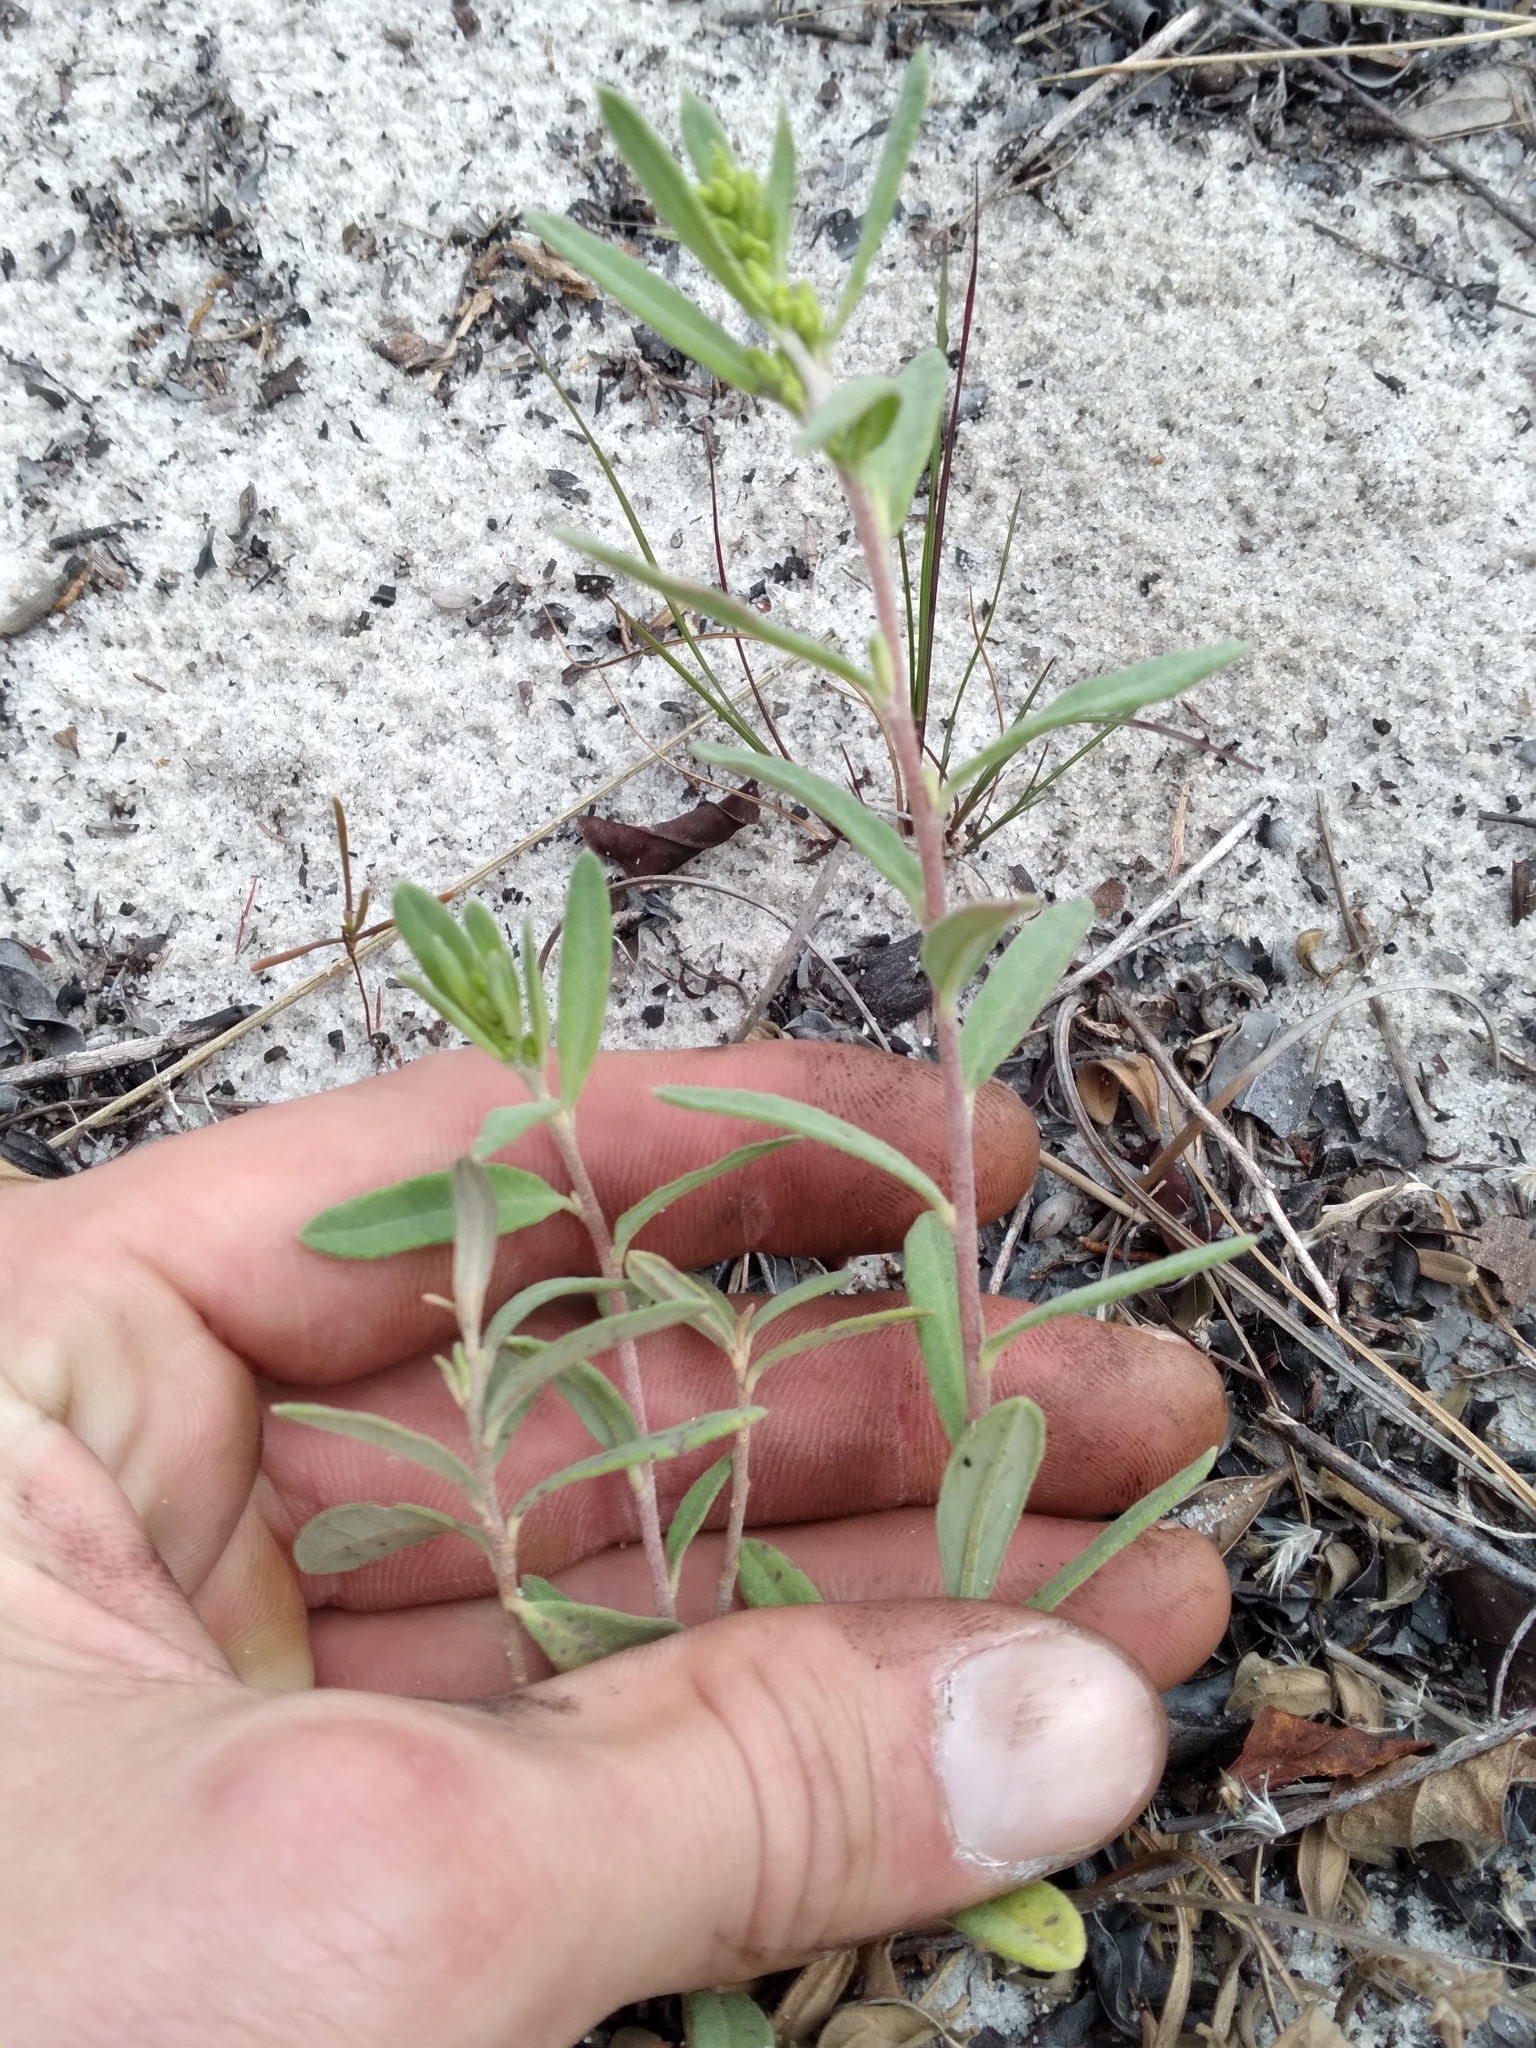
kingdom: Plantae
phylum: Tracheophyta
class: Magnoliopsida
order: Malvales
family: Cistaceae
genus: Crocanthemum
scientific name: Crocanthemum nashii
